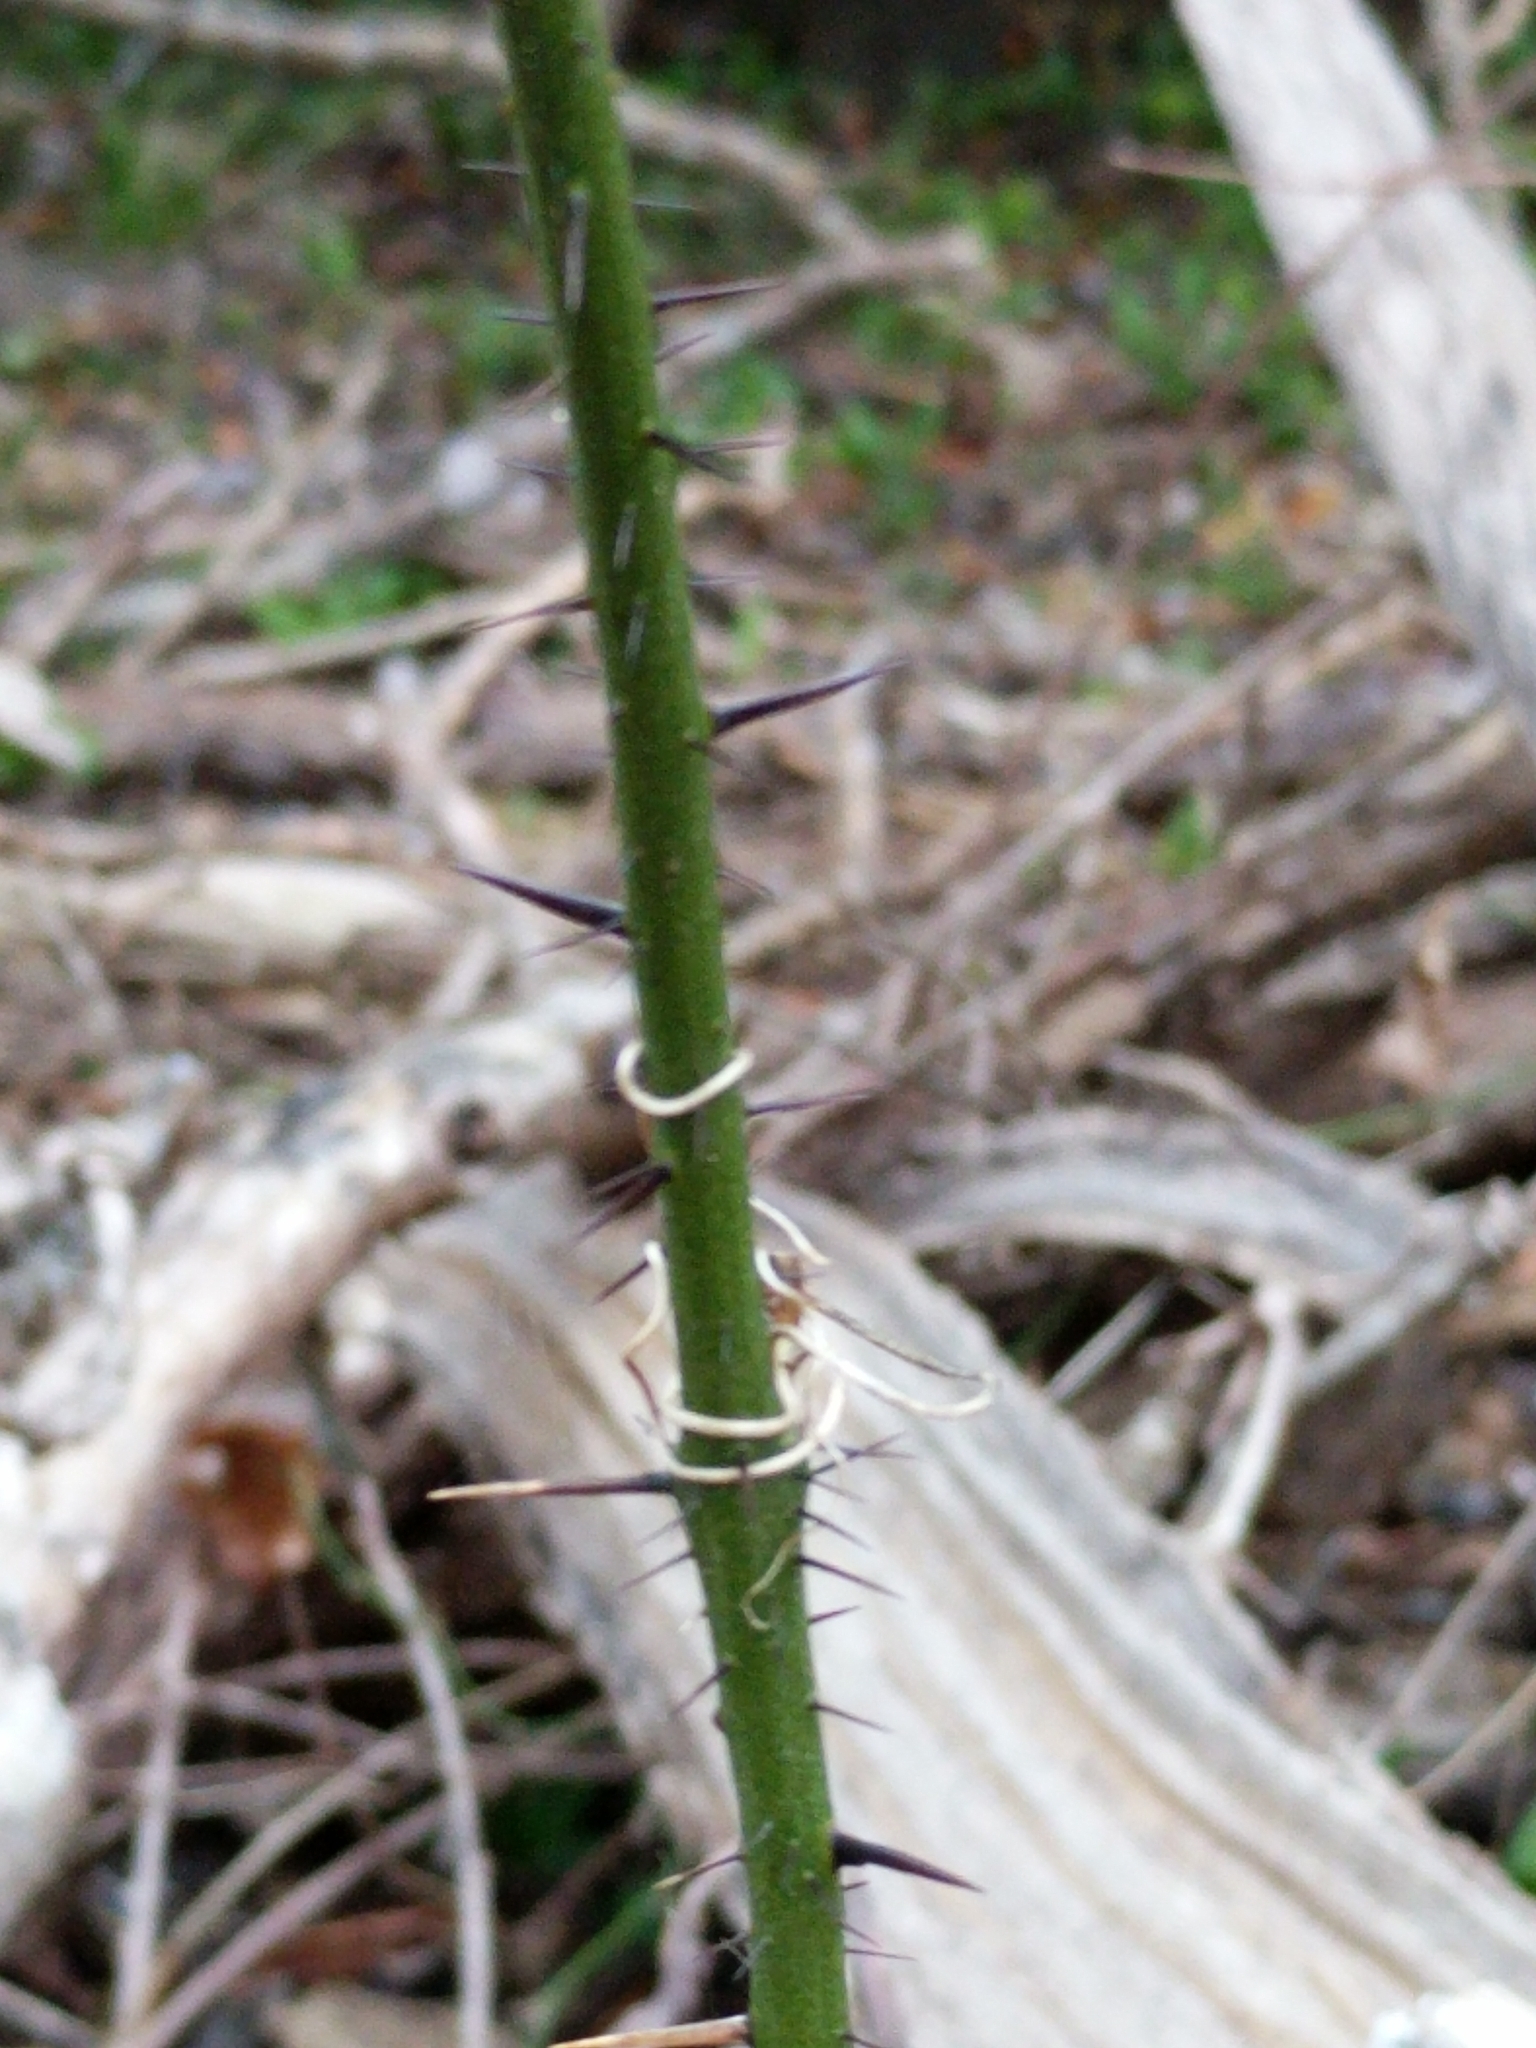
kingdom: Plantae
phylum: Tracheophyta
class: Liliopsida
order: Liliales
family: Smilacaceae
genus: Smilax
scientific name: Smilax tamnoides
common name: Hellfetter
